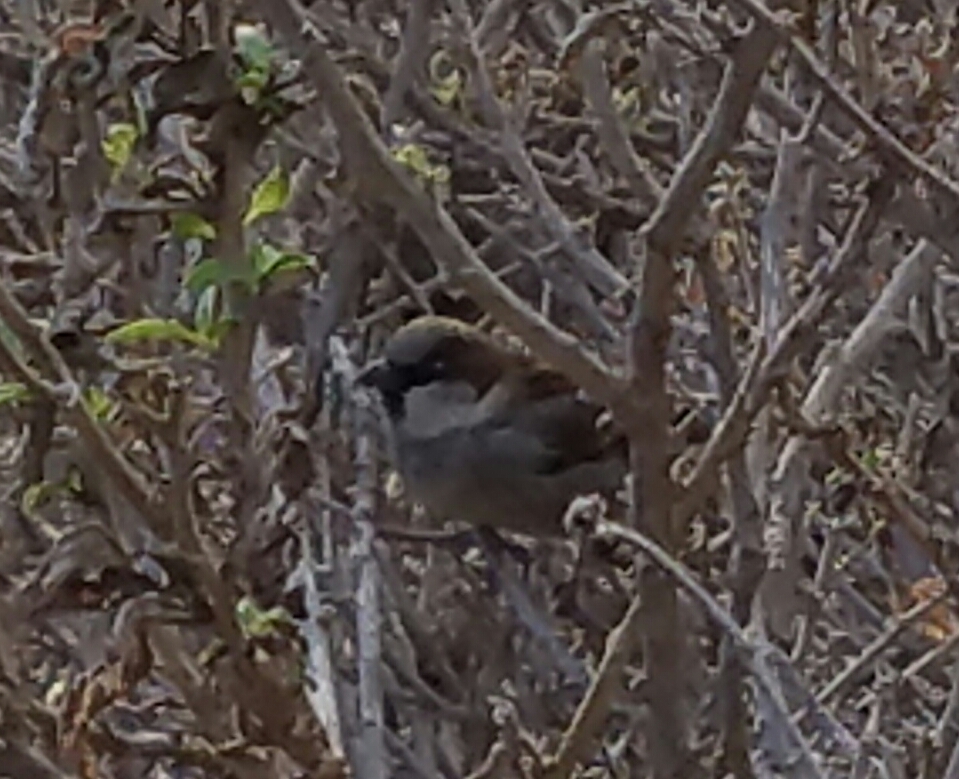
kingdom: Animalia
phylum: Chordata
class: Aves
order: Passeriformes
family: Passeridae
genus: Passer
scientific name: Passer domesticus
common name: House sparrow
